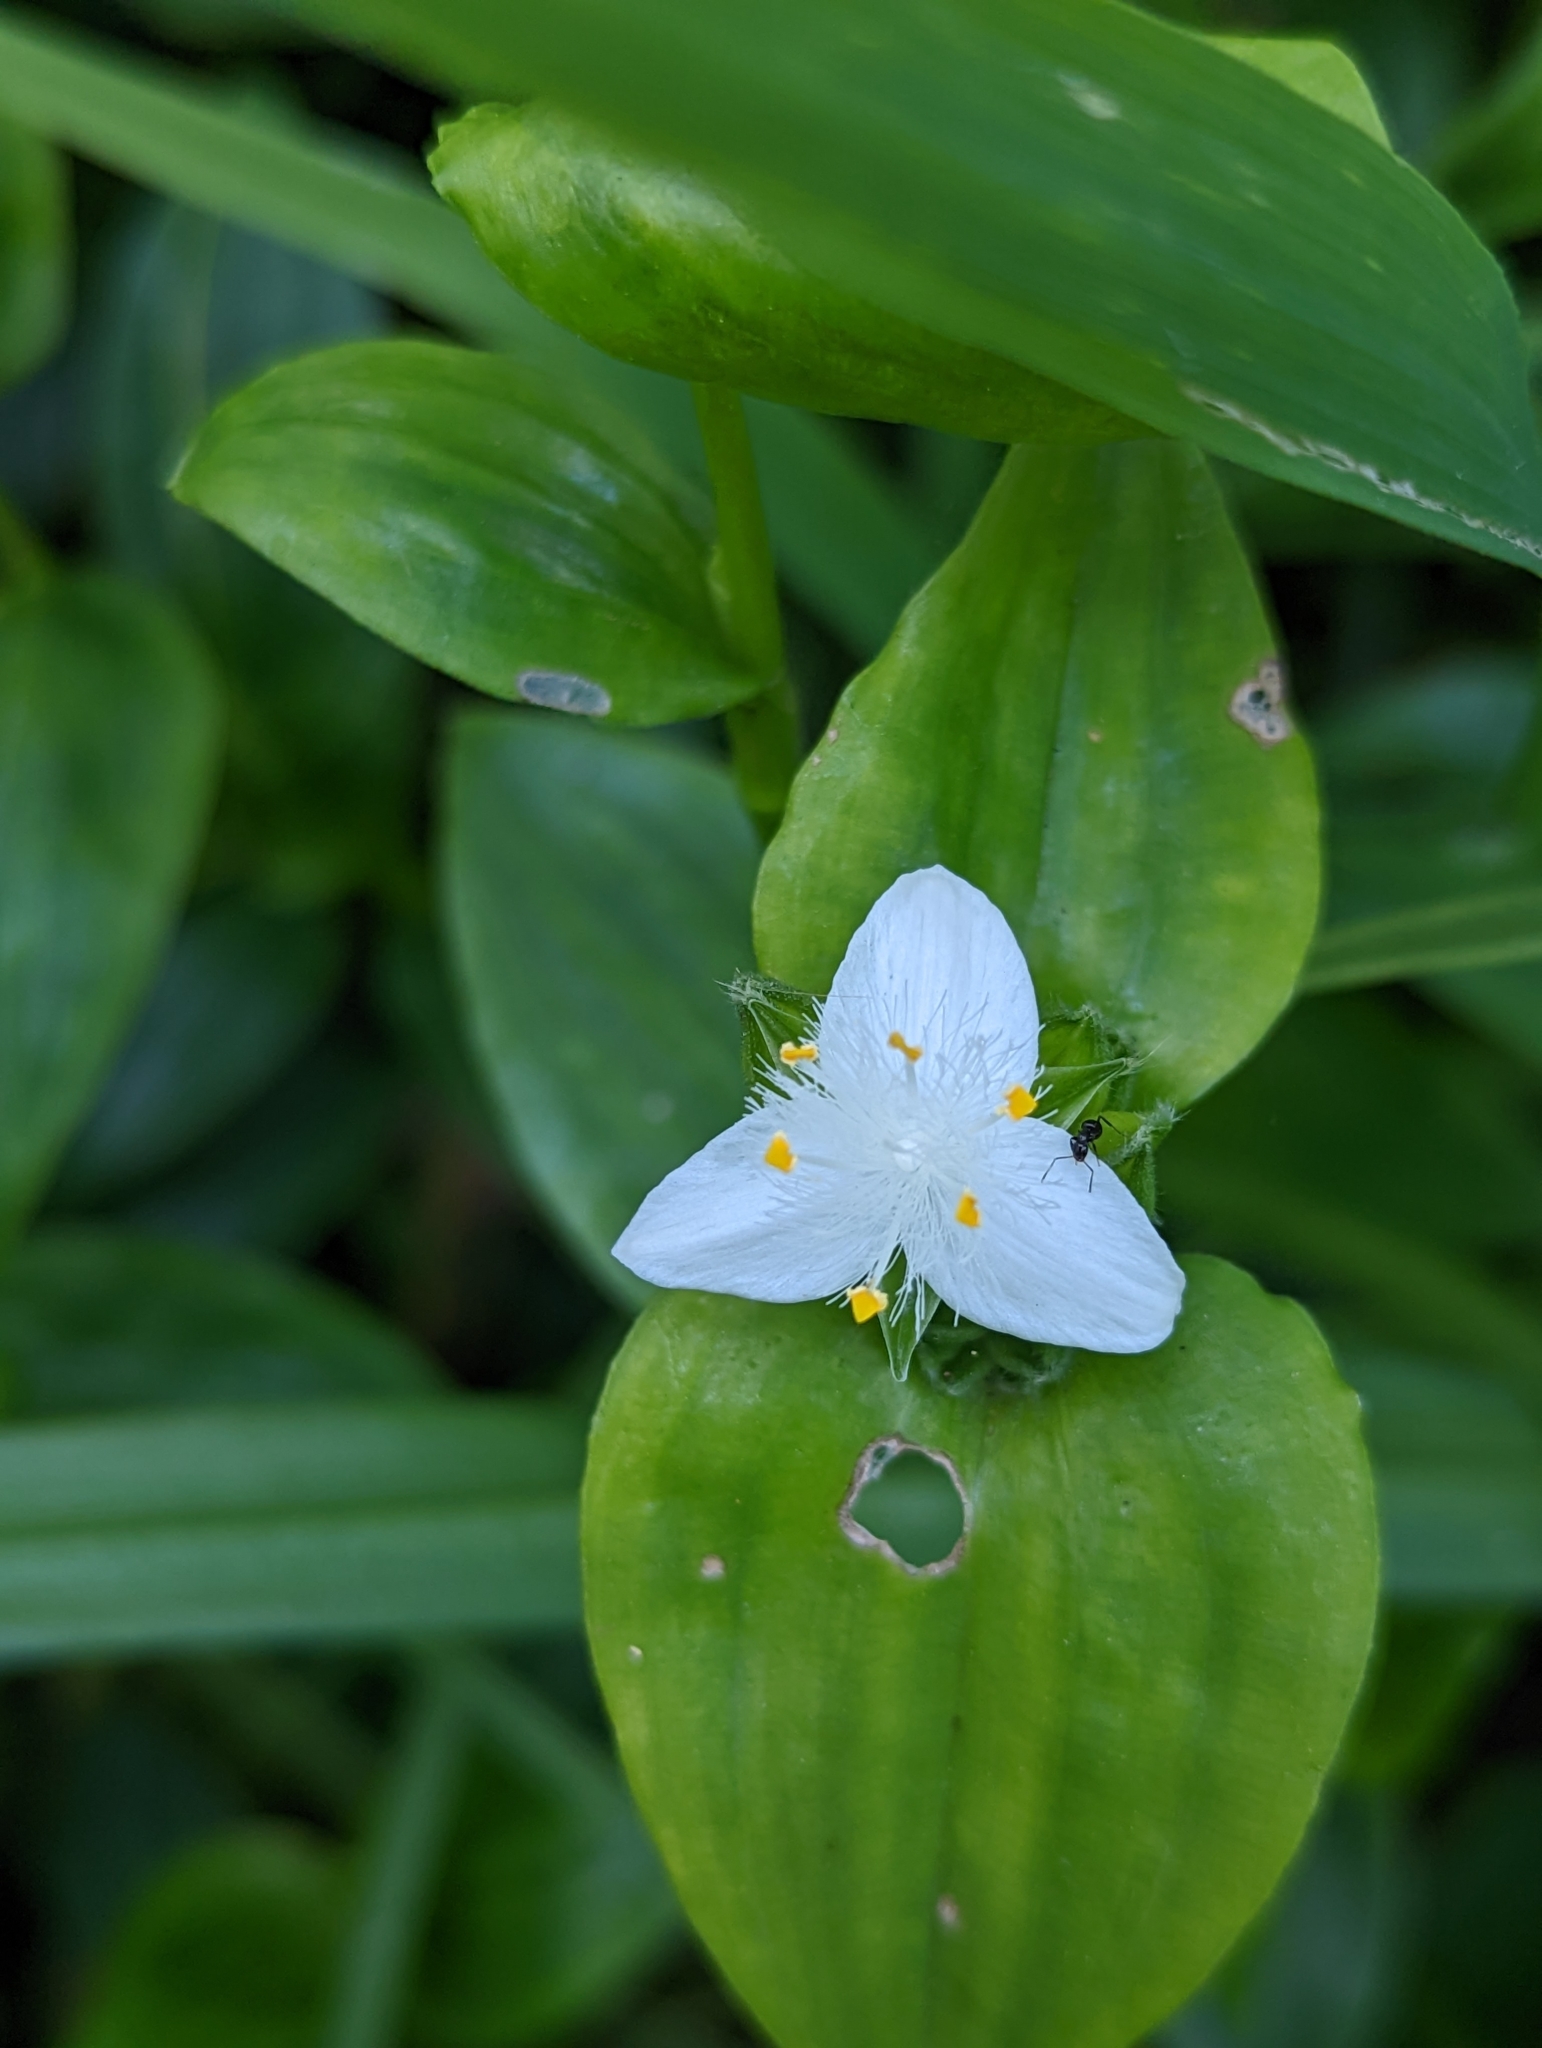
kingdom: Plantae
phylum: Tracheophyta
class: Liliopsida
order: Commelinales
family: Commelinaceae
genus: Tradescantia
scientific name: Tradescantia fluminensis
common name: Wandering-jew
